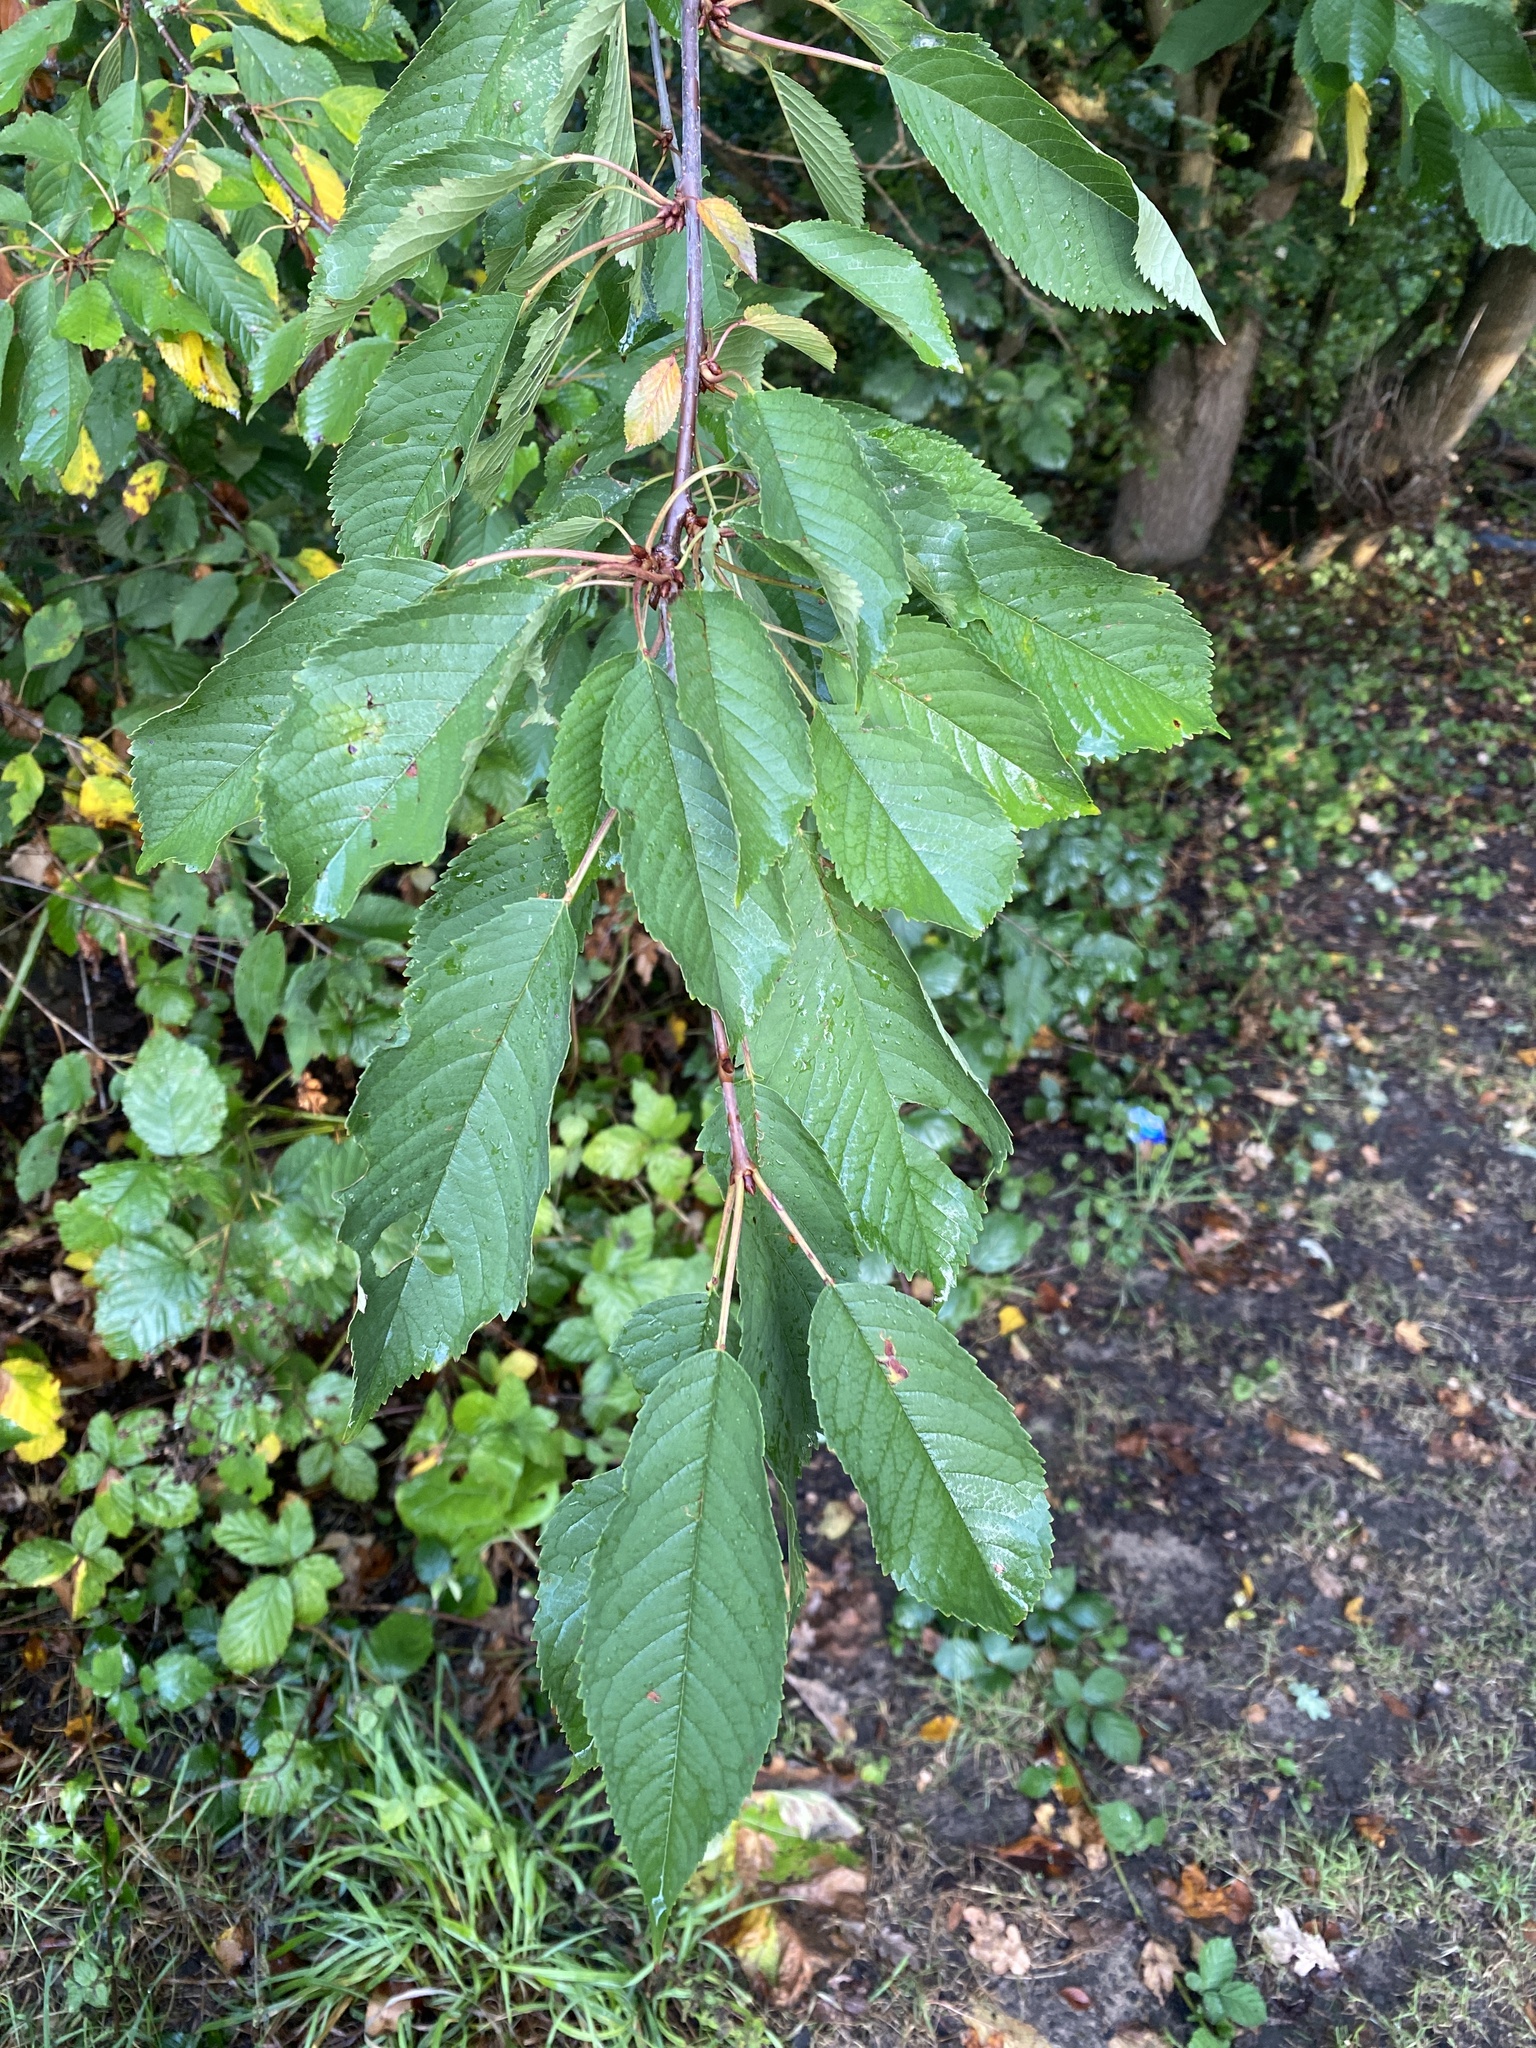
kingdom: Plantae
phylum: Tracheophyta
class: Magnoliopsida
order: Rosales
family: Rosaceae
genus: Prunus
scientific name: Prunus avium
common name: Sweet cherry
